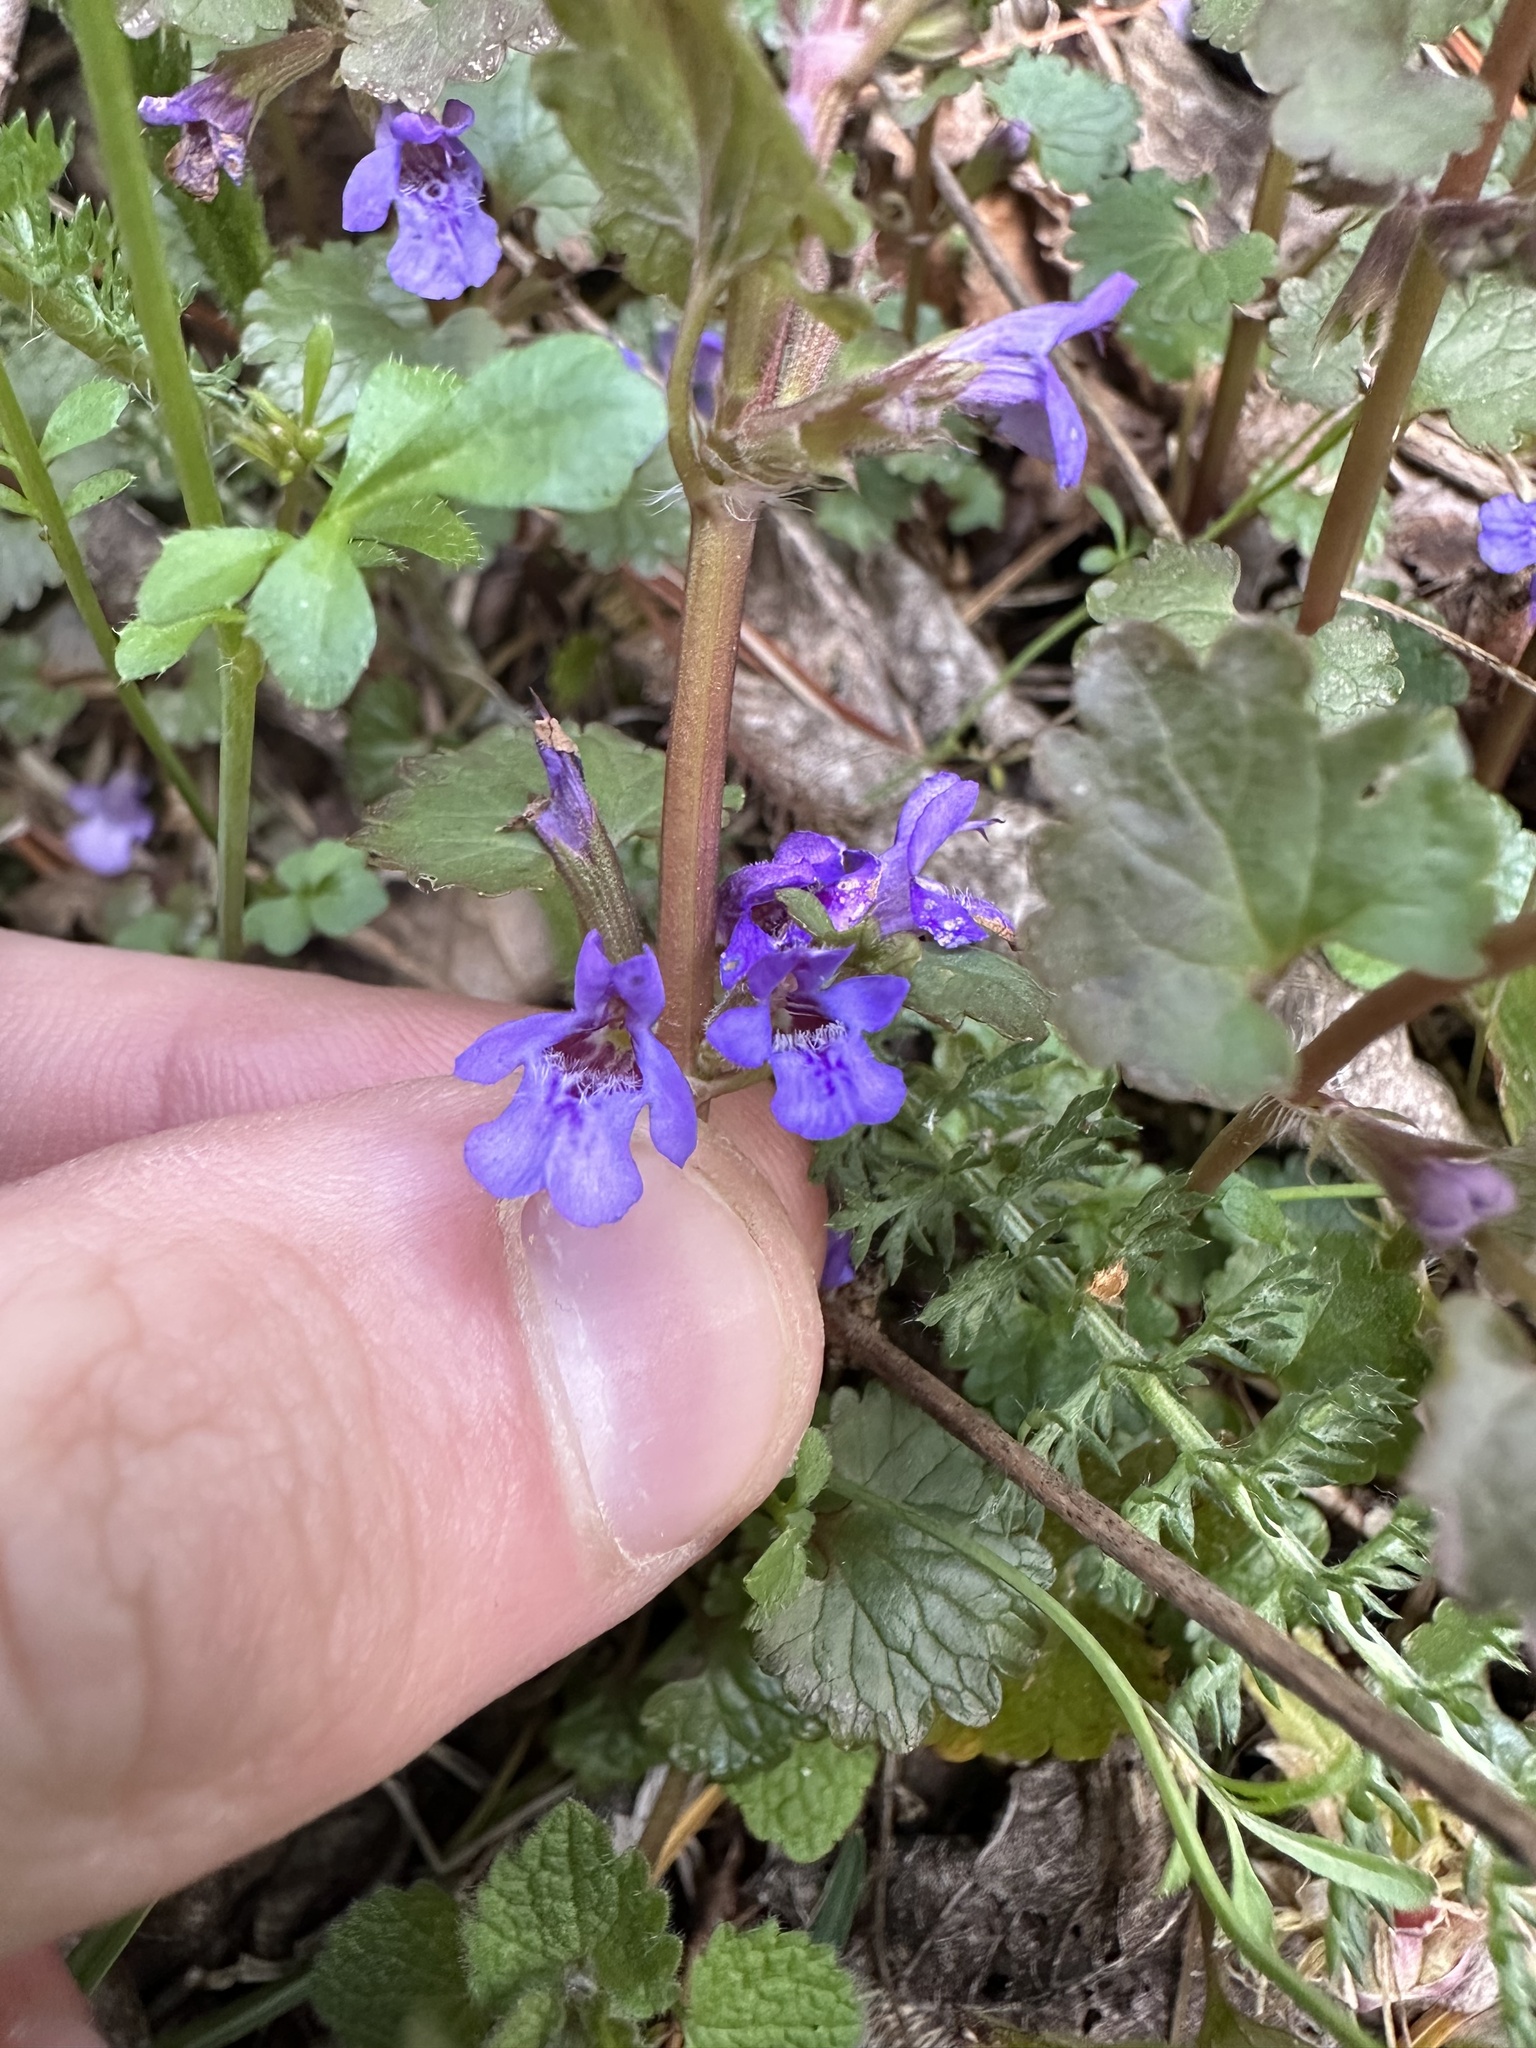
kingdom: Plantae
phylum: Tracheophyta
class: Magnoliopsida
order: Lamiales
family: Lamiaceae
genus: Glechoma
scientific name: Glechoma hederacea
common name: Ground ivy
